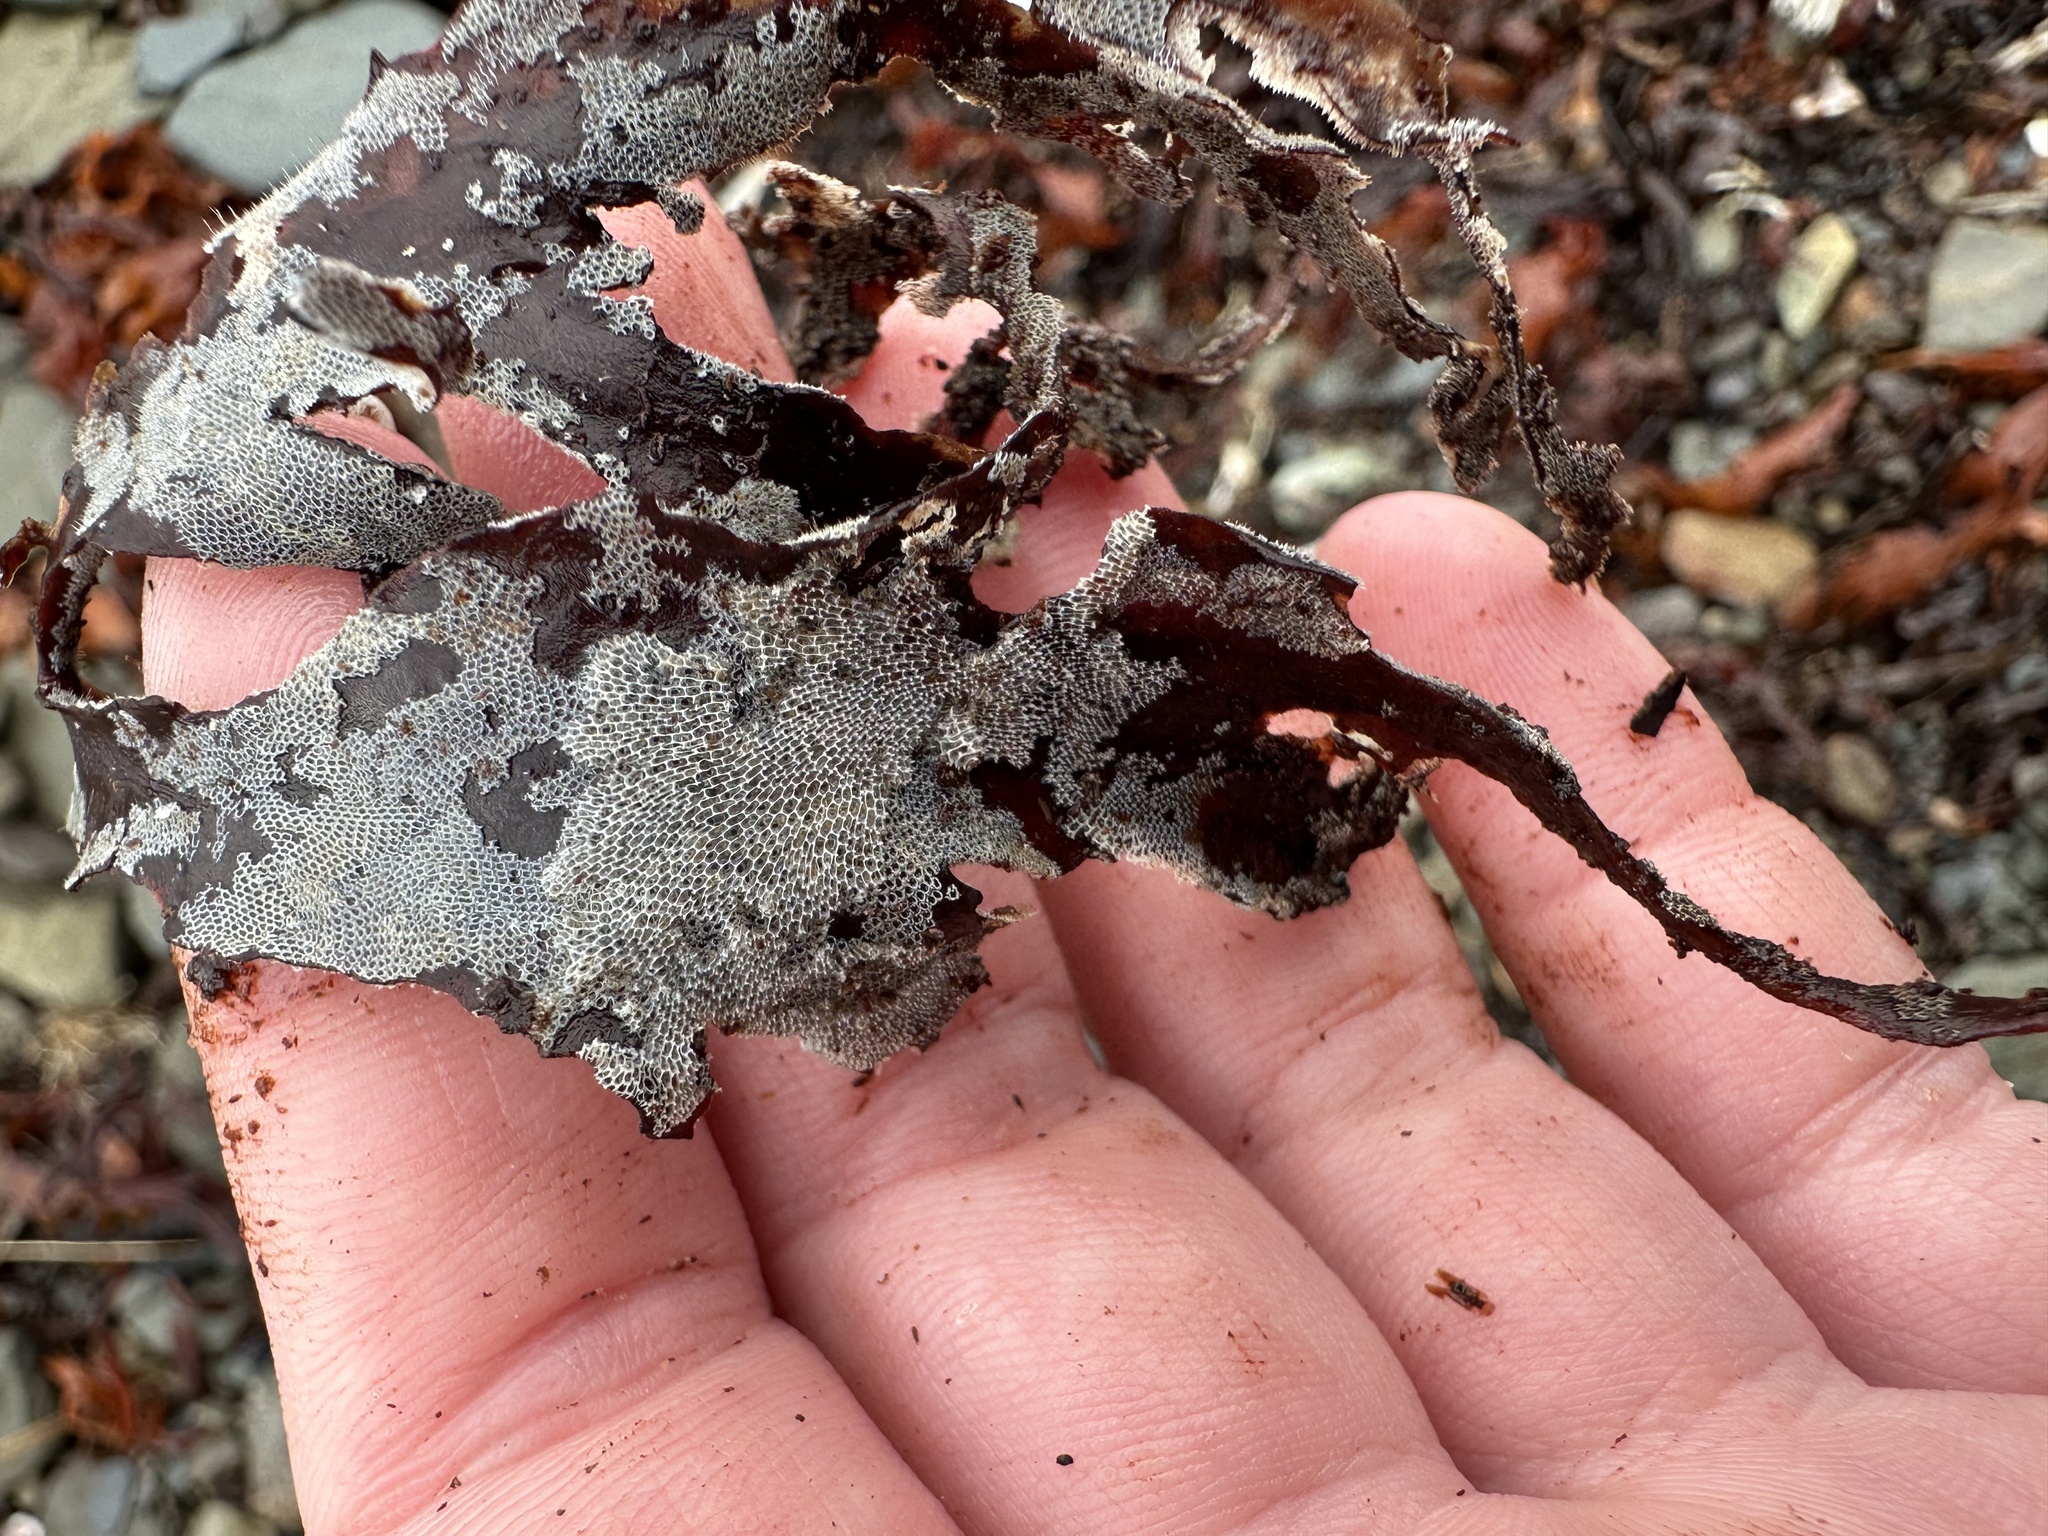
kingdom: Animalia
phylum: Bryozoa
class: Gymnolaemata
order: Cheilostomatida
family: Membraniporidae
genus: Membranipora
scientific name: Membranipora membranacea
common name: Sea mat
